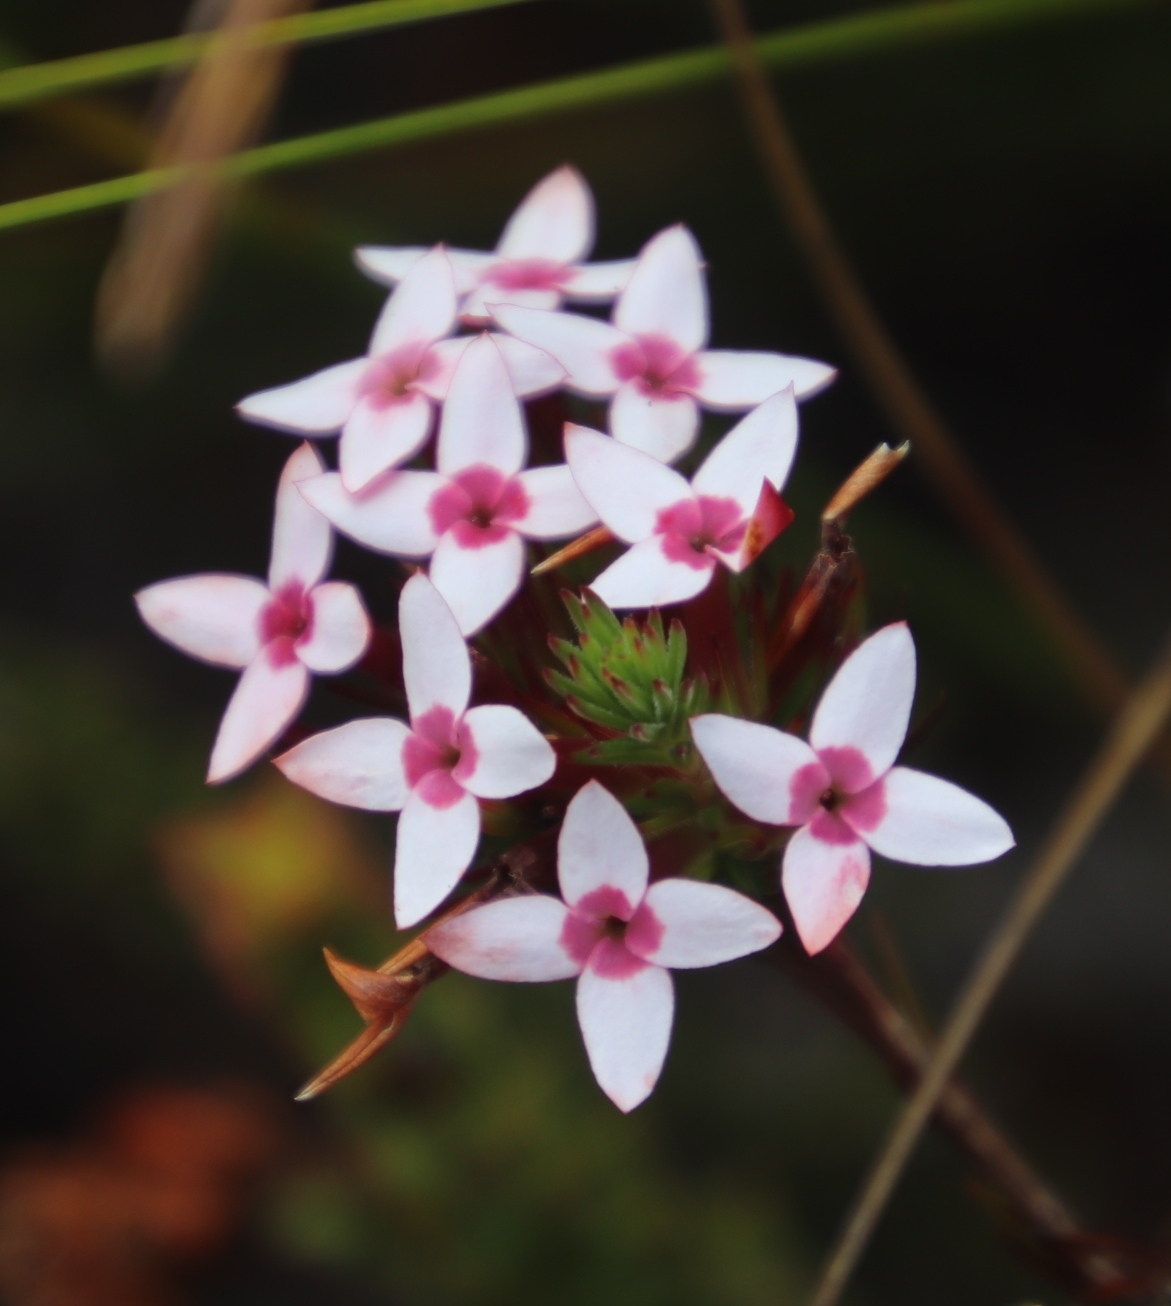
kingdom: Plantae
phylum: Tracheophyta
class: Magnoliopsida
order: Ericales
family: Ericaceae
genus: Erica
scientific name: Erica fastigiata
